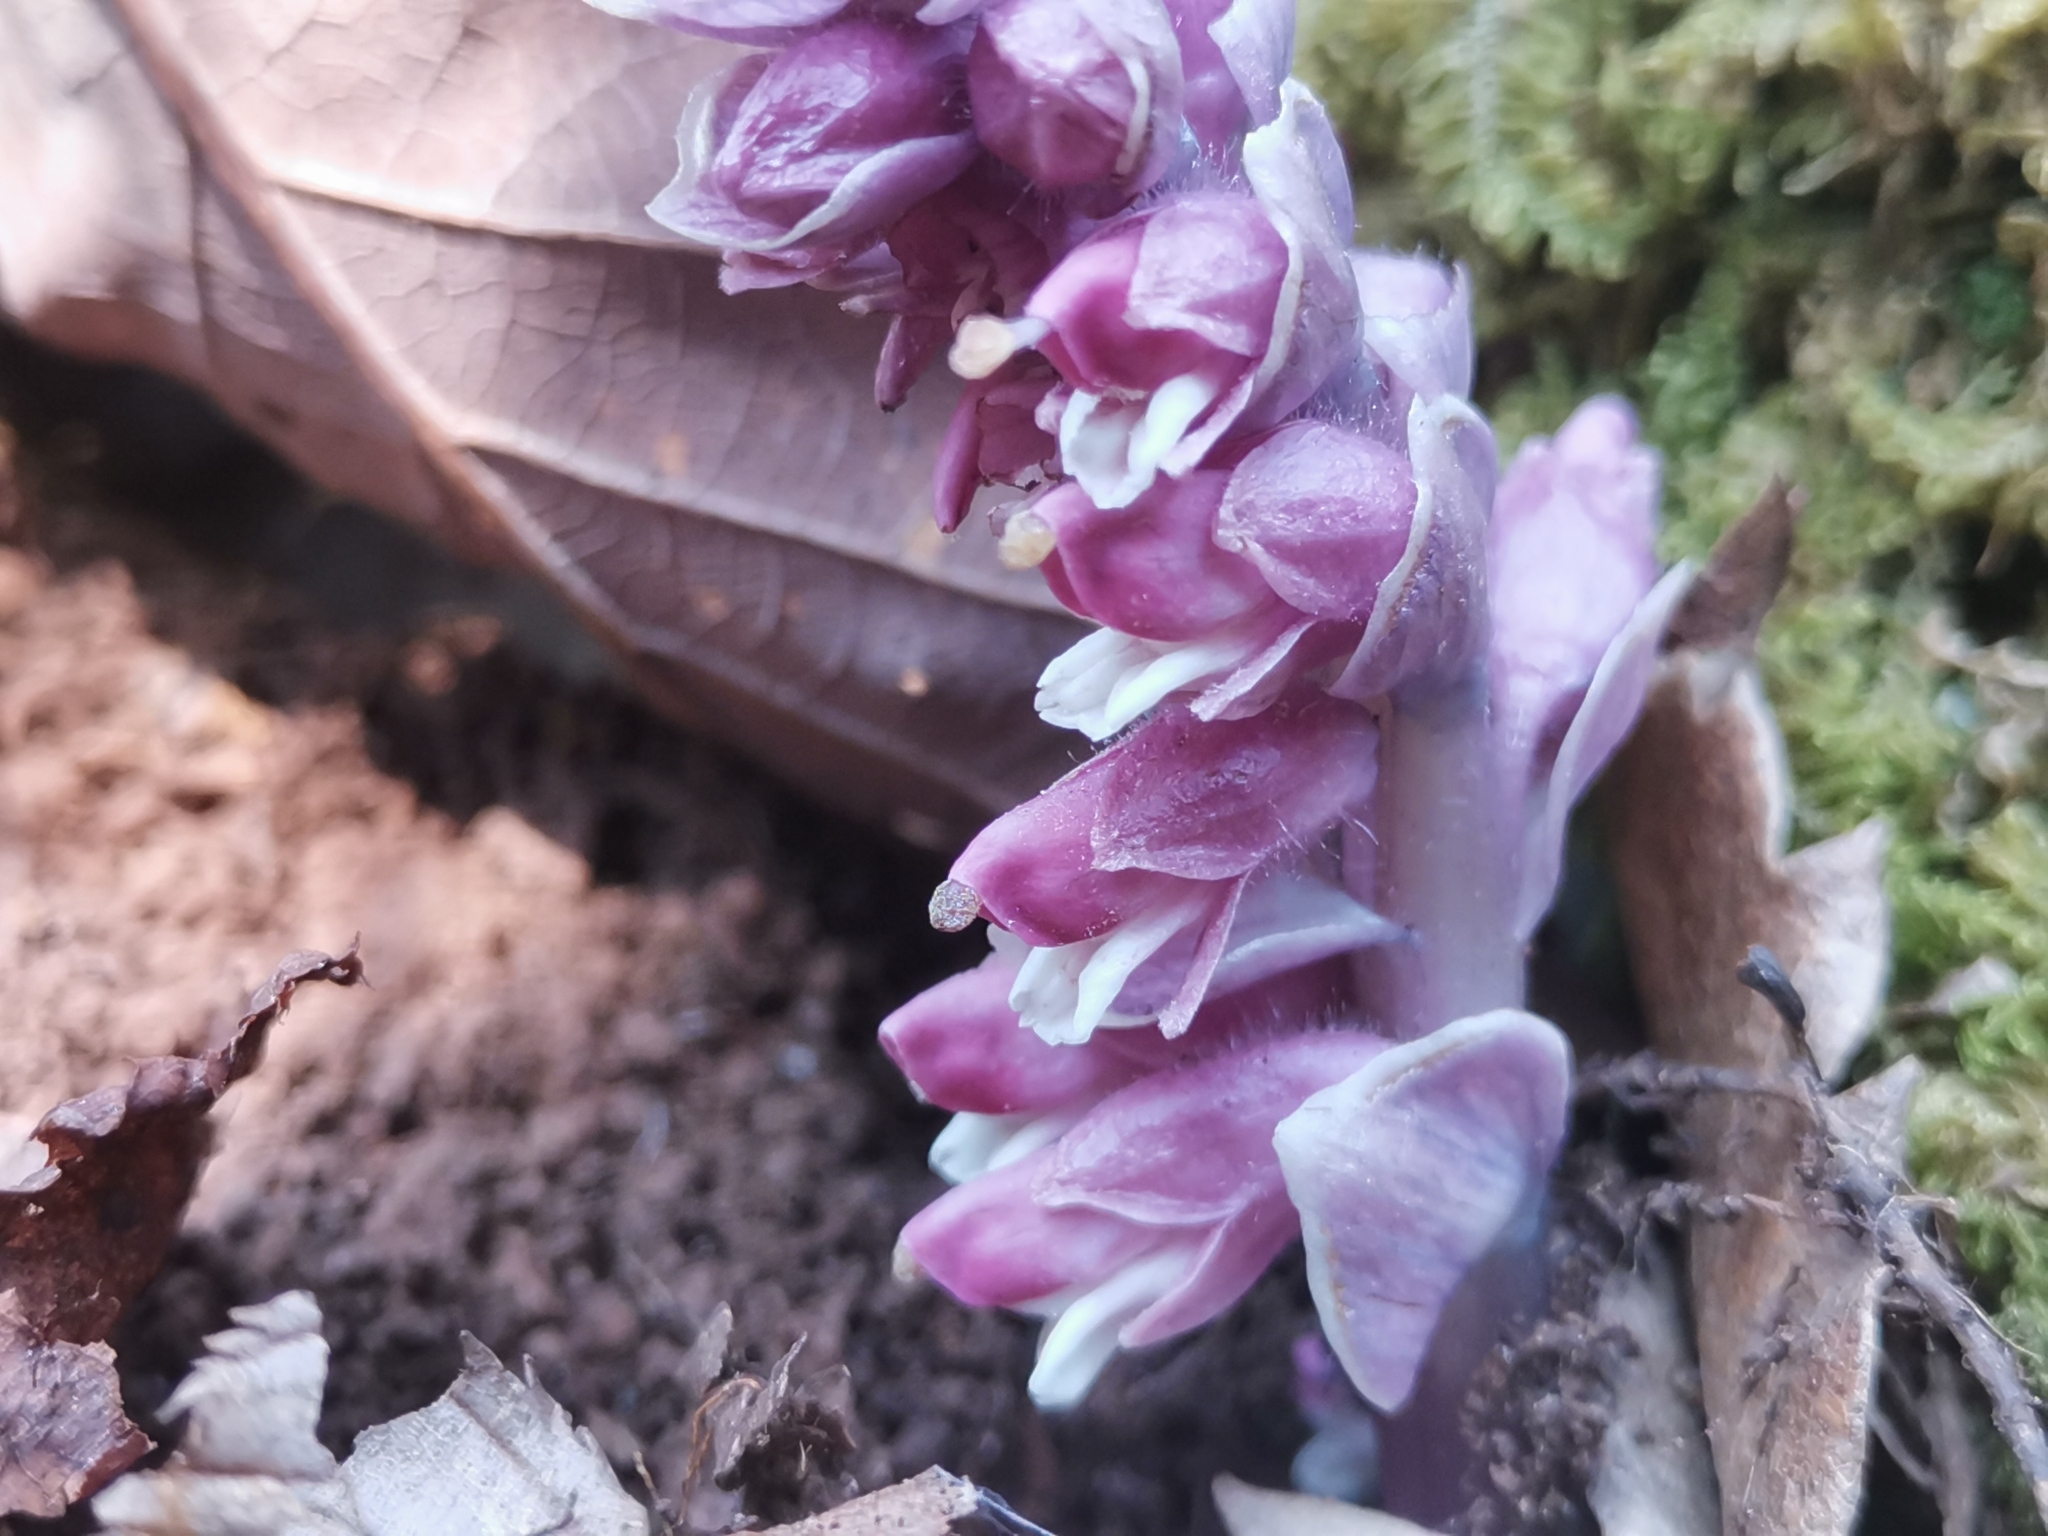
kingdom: Plantae
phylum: Tracheophyta
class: Magnoliopsida
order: Lamiales
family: Orobanchaceae
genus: Lathraea
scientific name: Lathraea squamaria
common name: Toothwort
